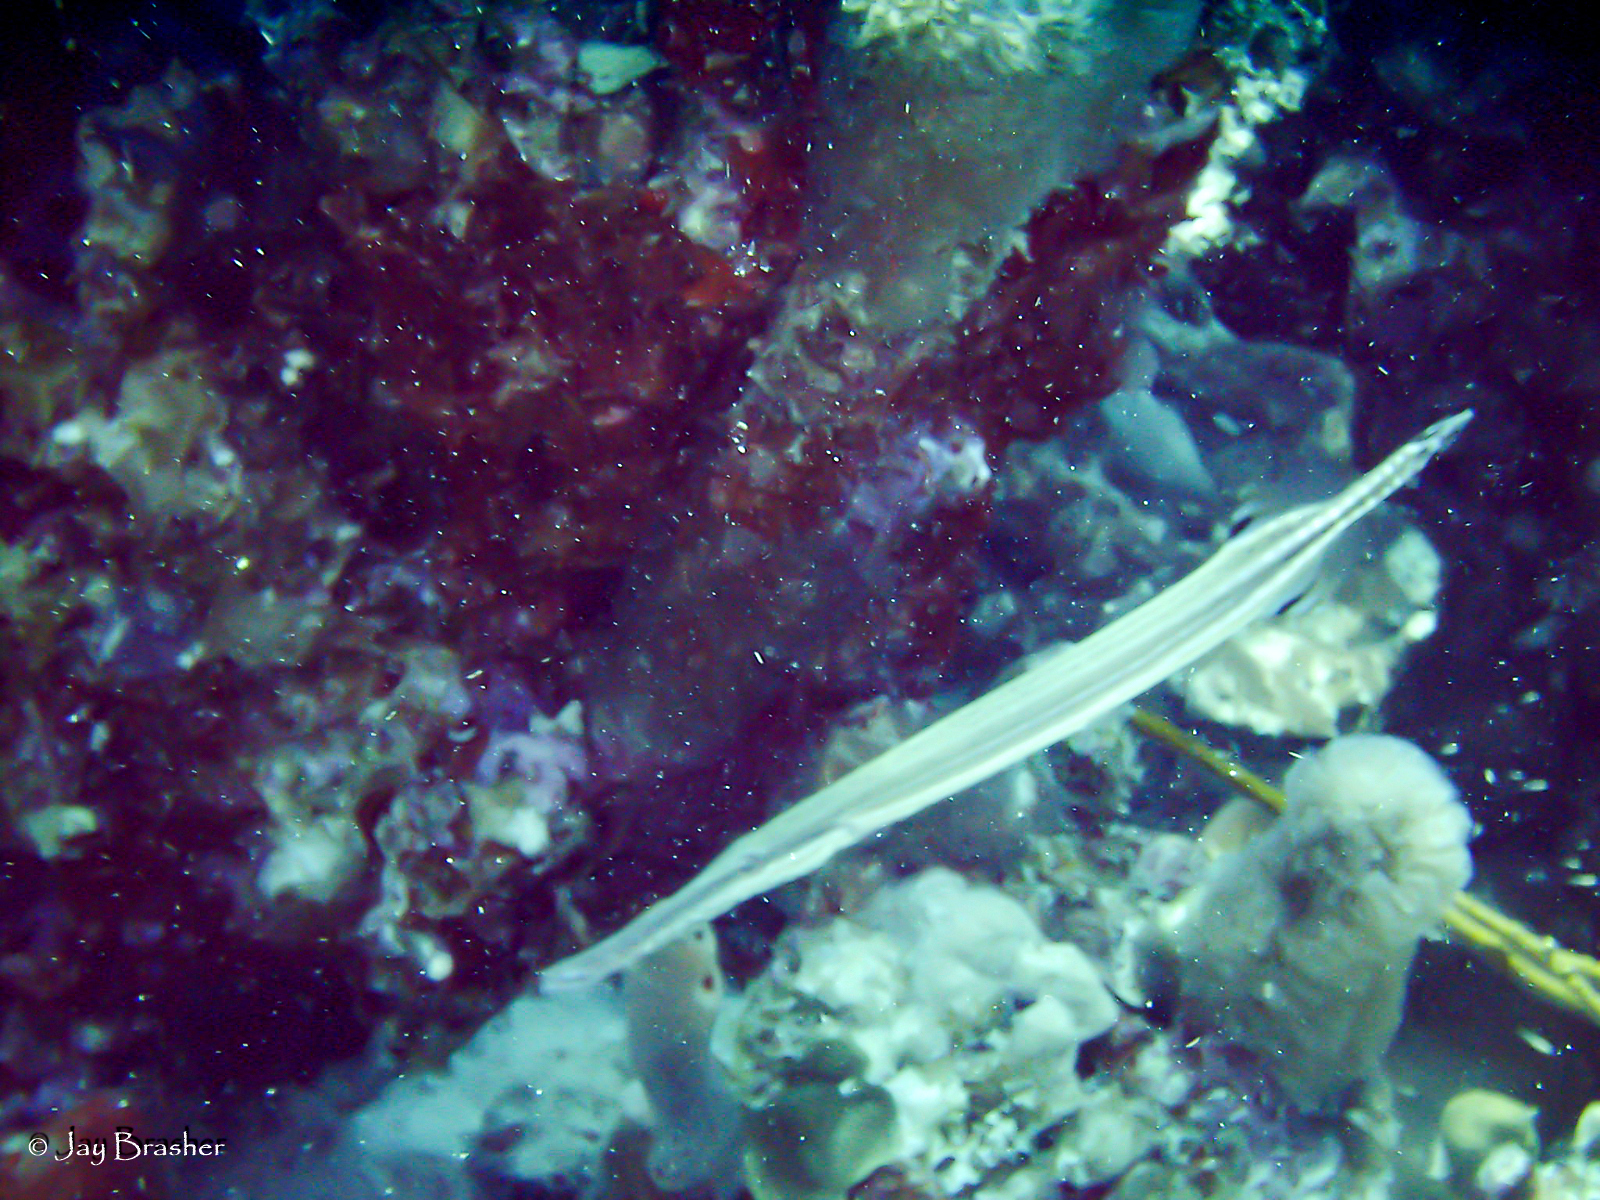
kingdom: Animalia
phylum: Chordata
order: Syngnathiformes
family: Aulostomidae
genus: Aulostomus
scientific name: Aulostomus maculatus
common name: West atlantic trumpetfish
